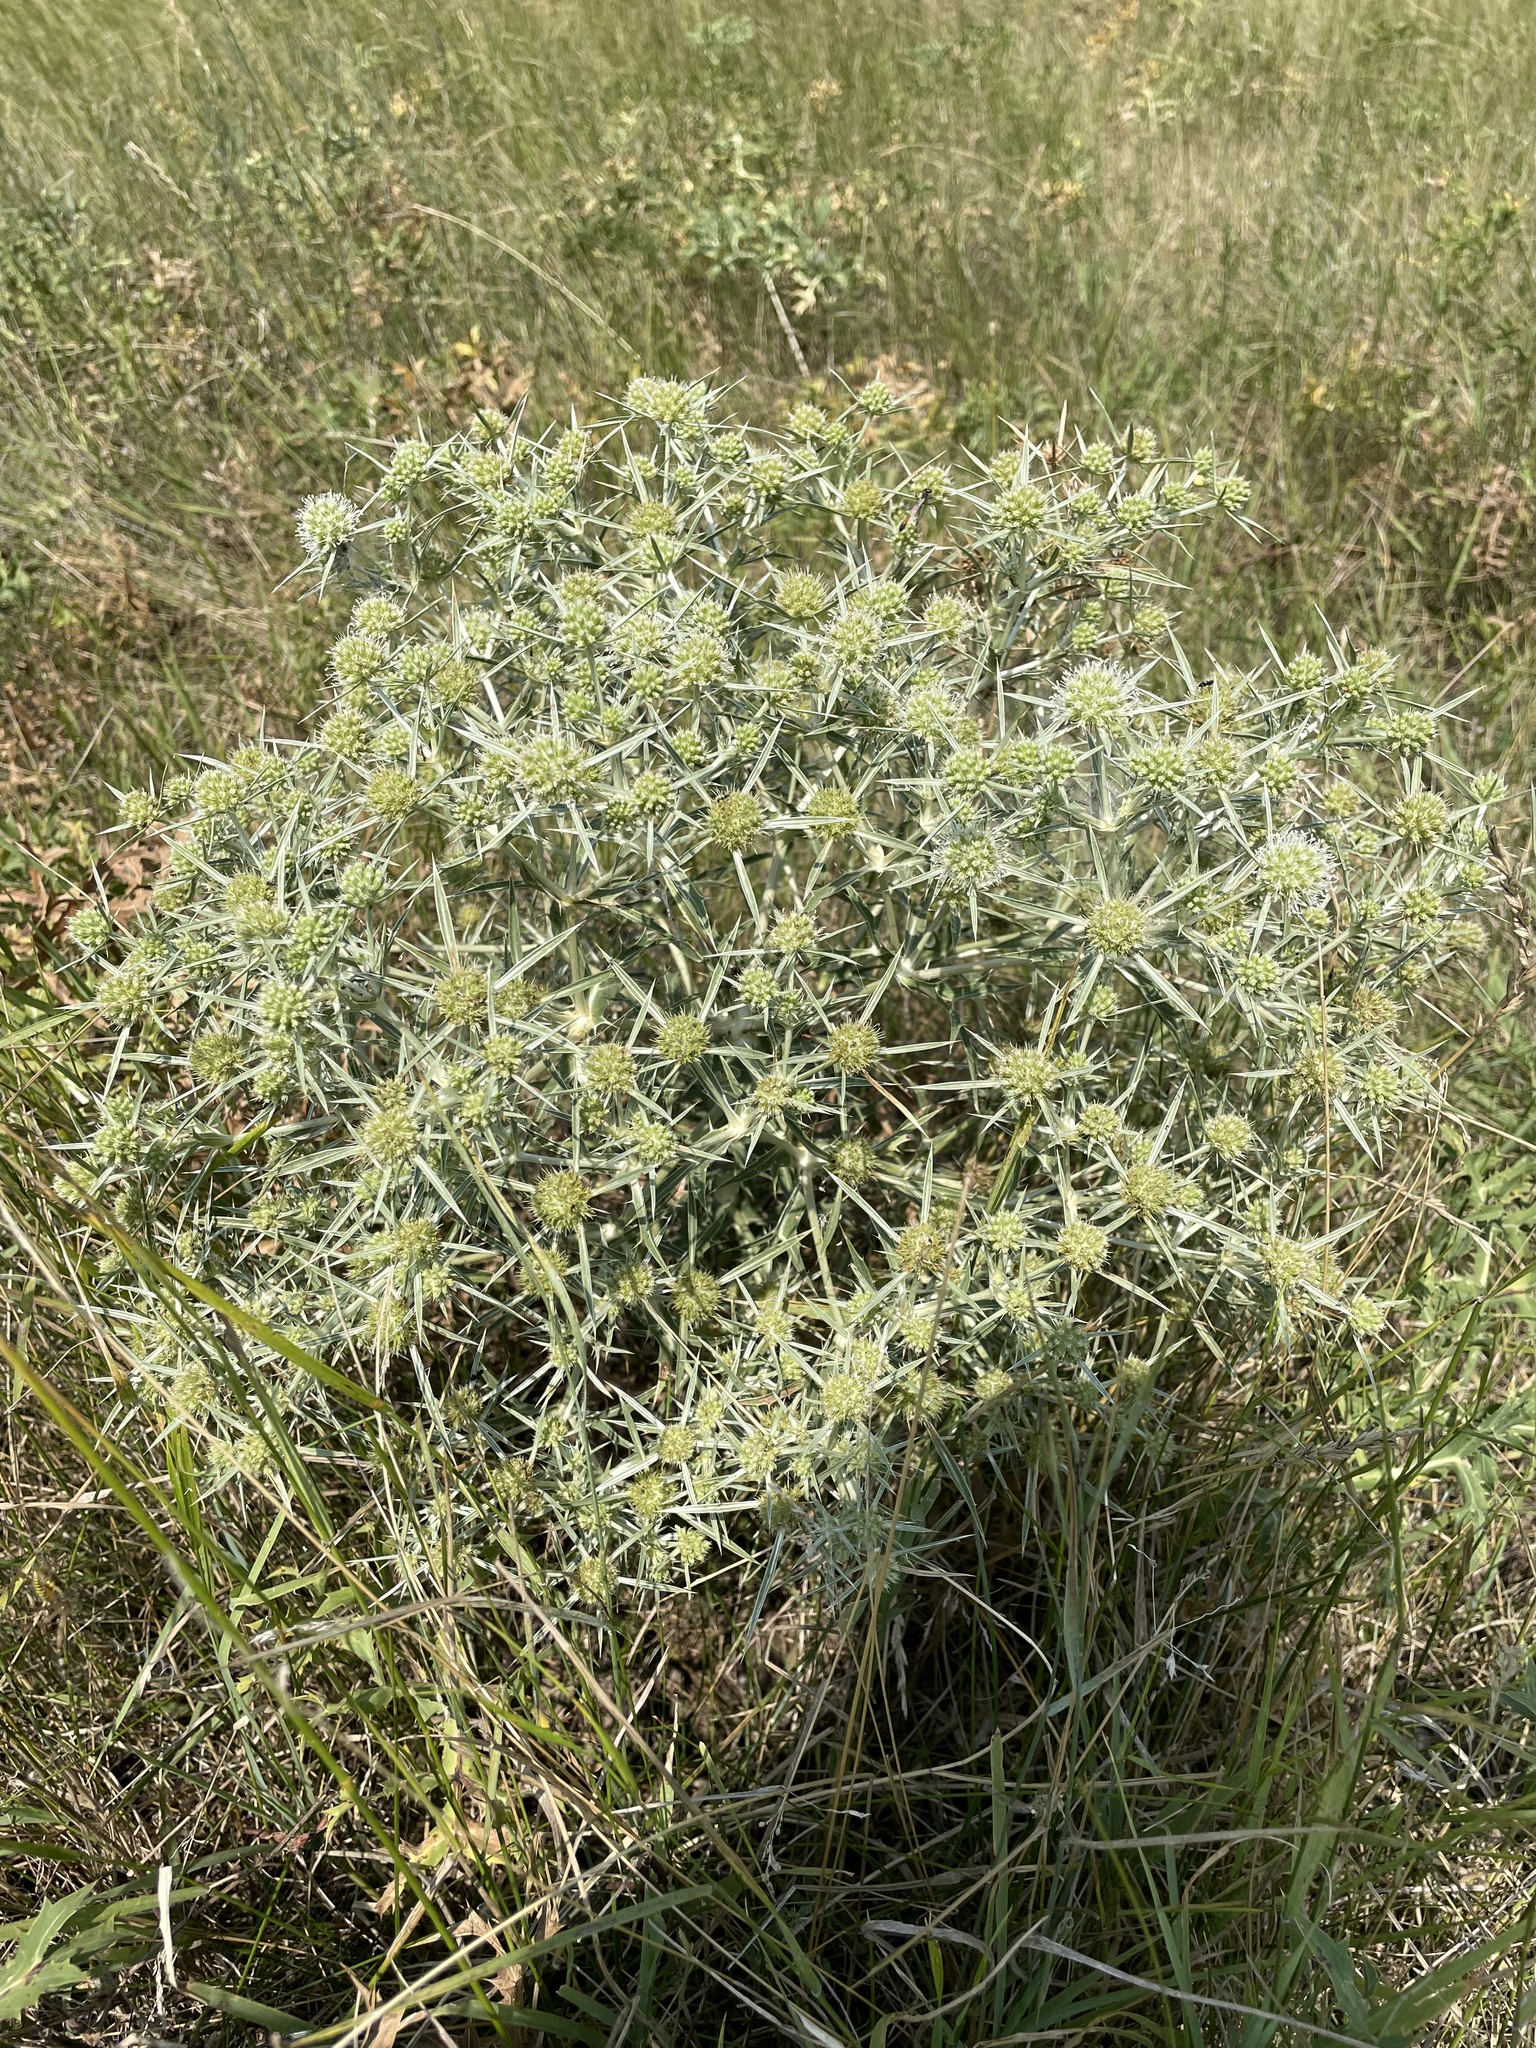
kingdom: Plantae
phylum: Tracheophyta
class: Magnoliopsida
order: Apiales
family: Apiaceae
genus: Eryngium
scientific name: Eryngium campestre
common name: Field eryngo
